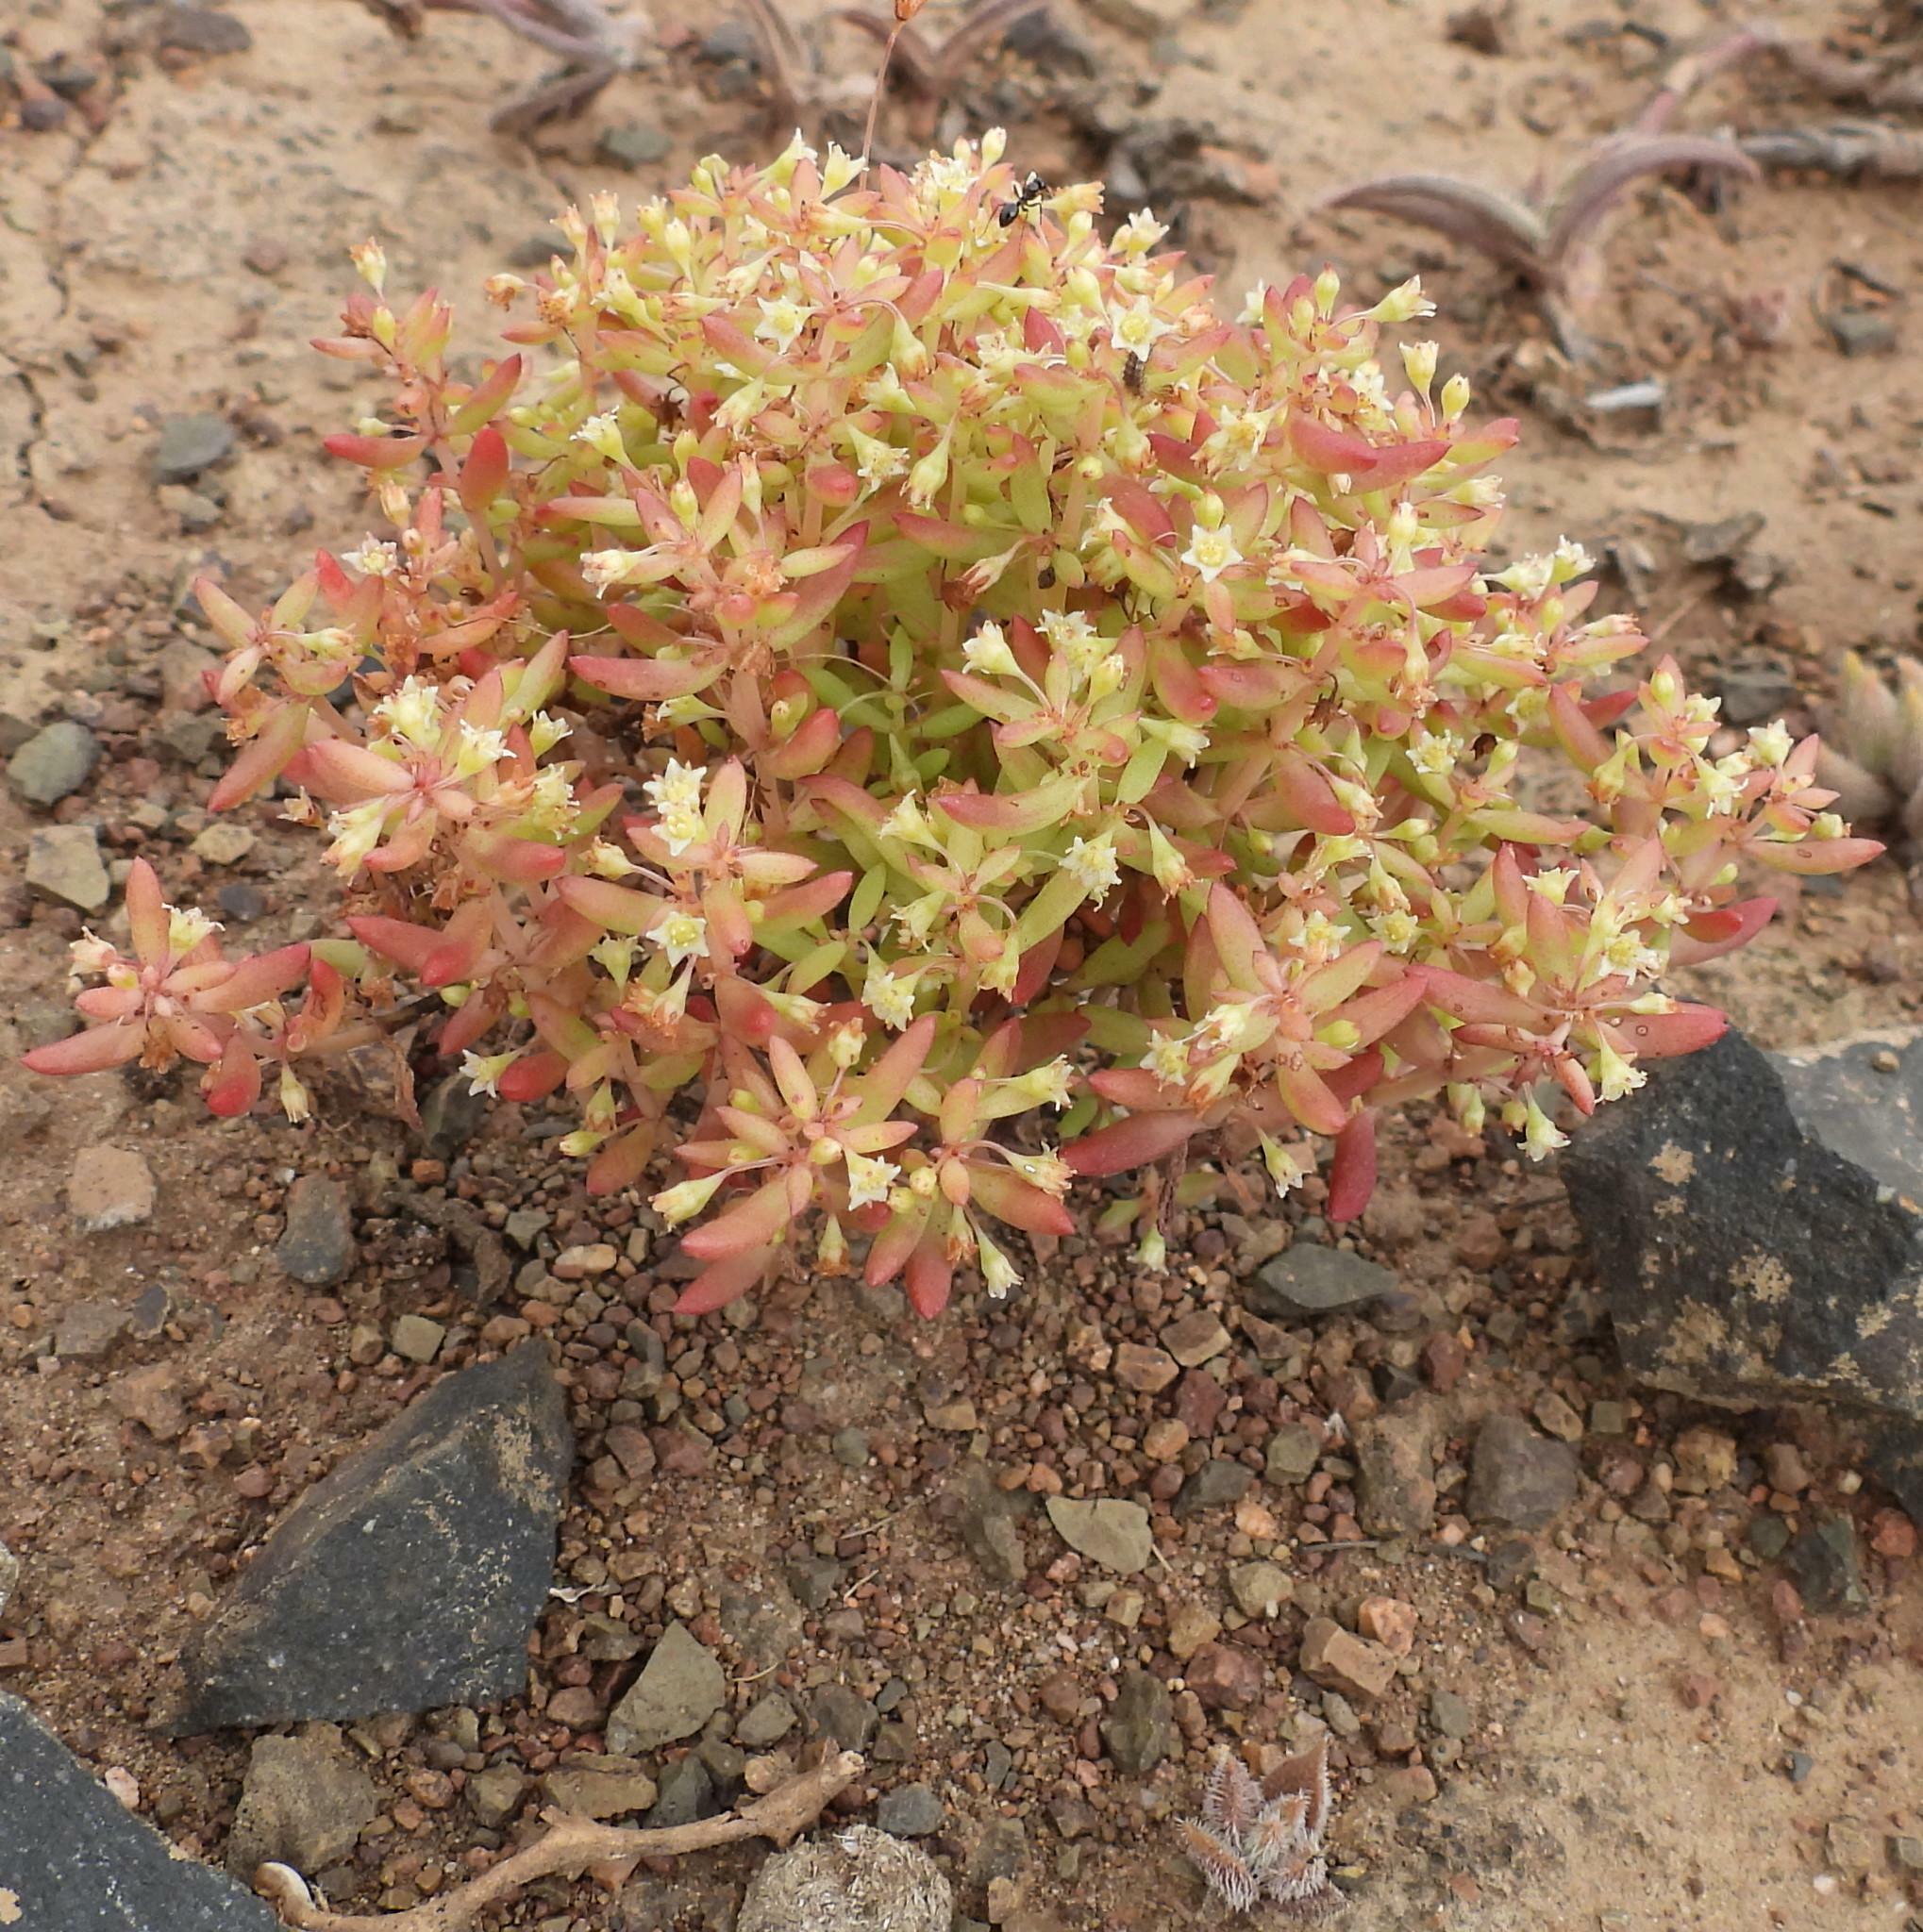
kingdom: Plantae
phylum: Tracheophyta
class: Magnoliopsida
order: Saxifragales
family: Crassulaceae
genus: Crassula
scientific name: Crassula expansa
